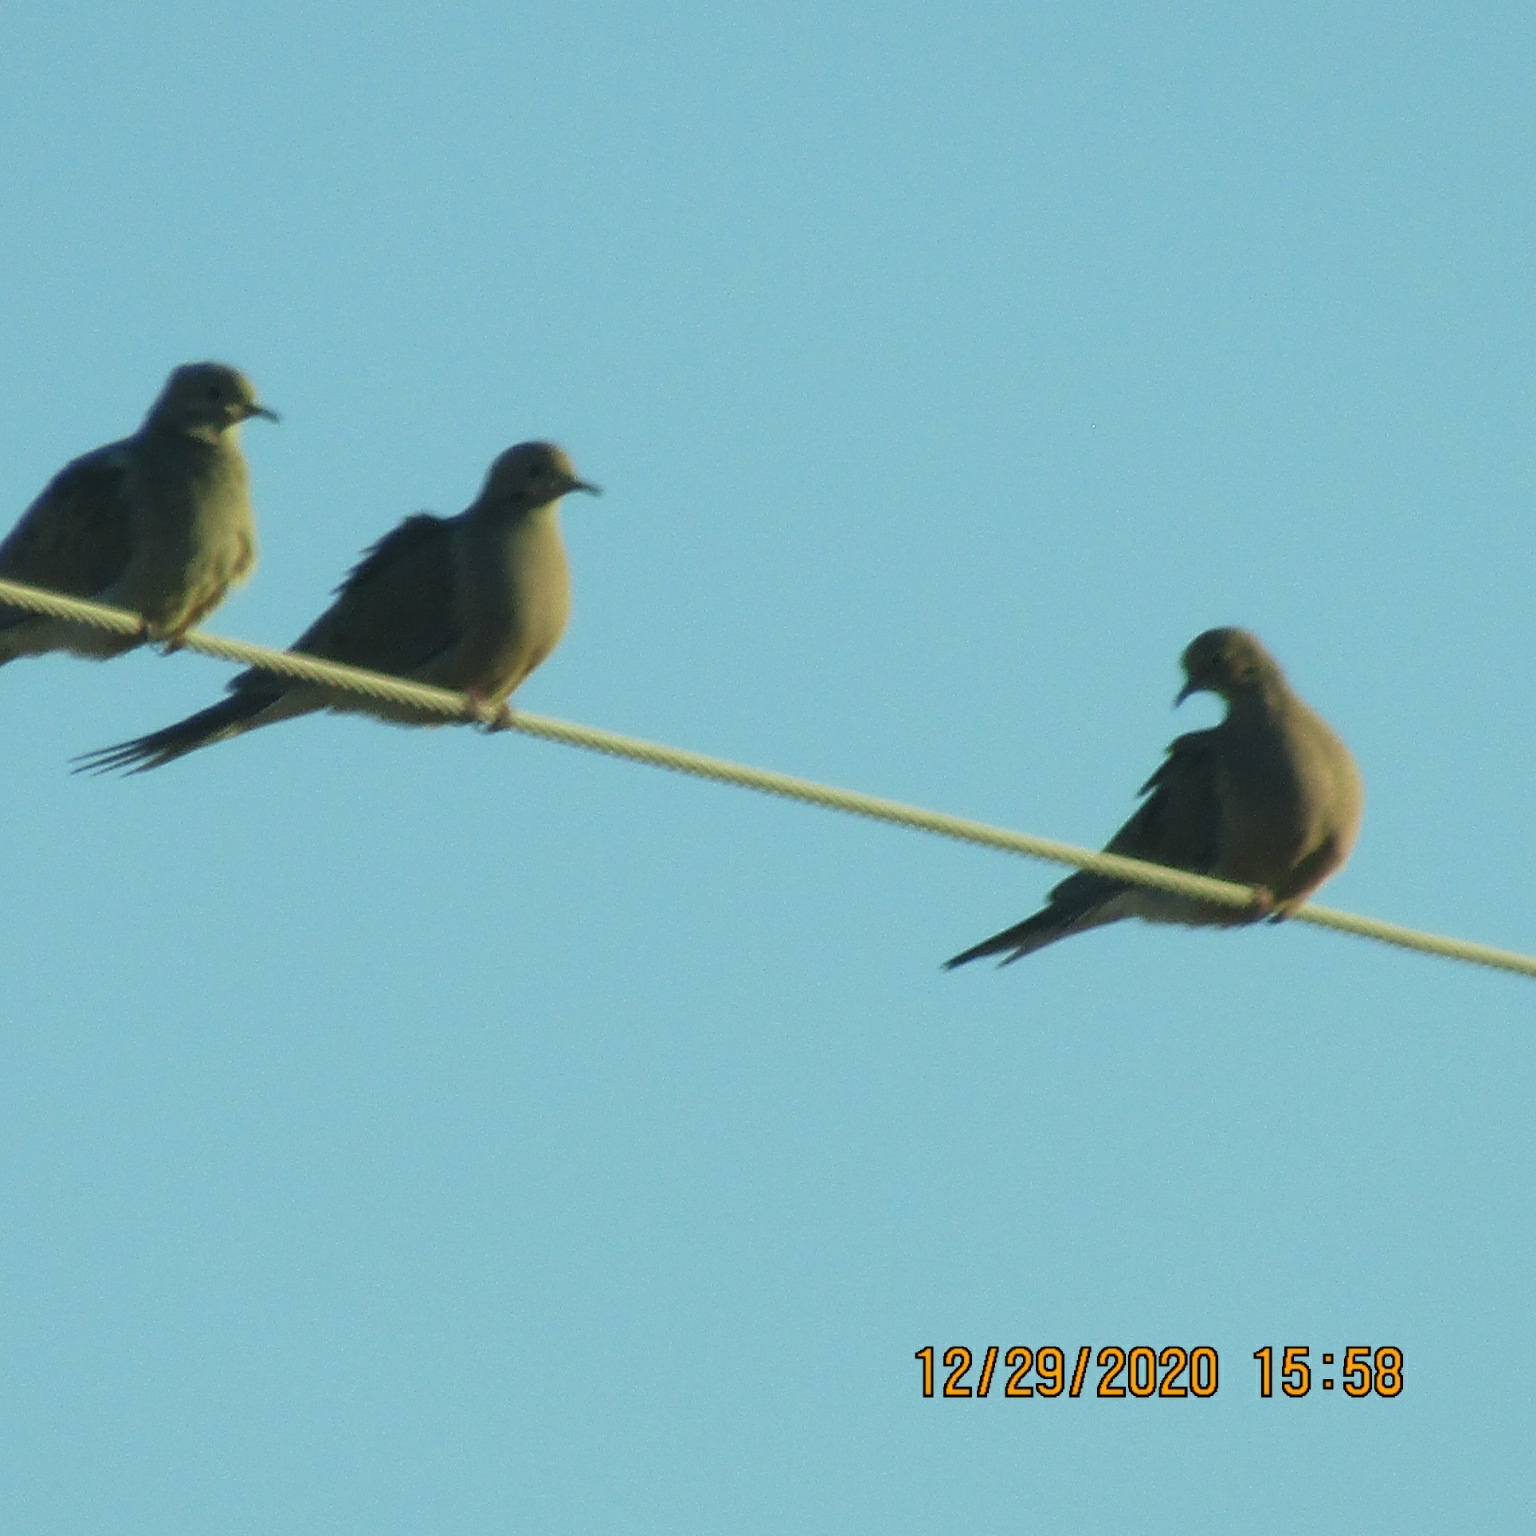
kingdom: Animalia
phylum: Chordata
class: Aves
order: Columbiformes
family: Columbidae
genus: Zenaida
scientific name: Zenaida macroura
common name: Mourning dove
